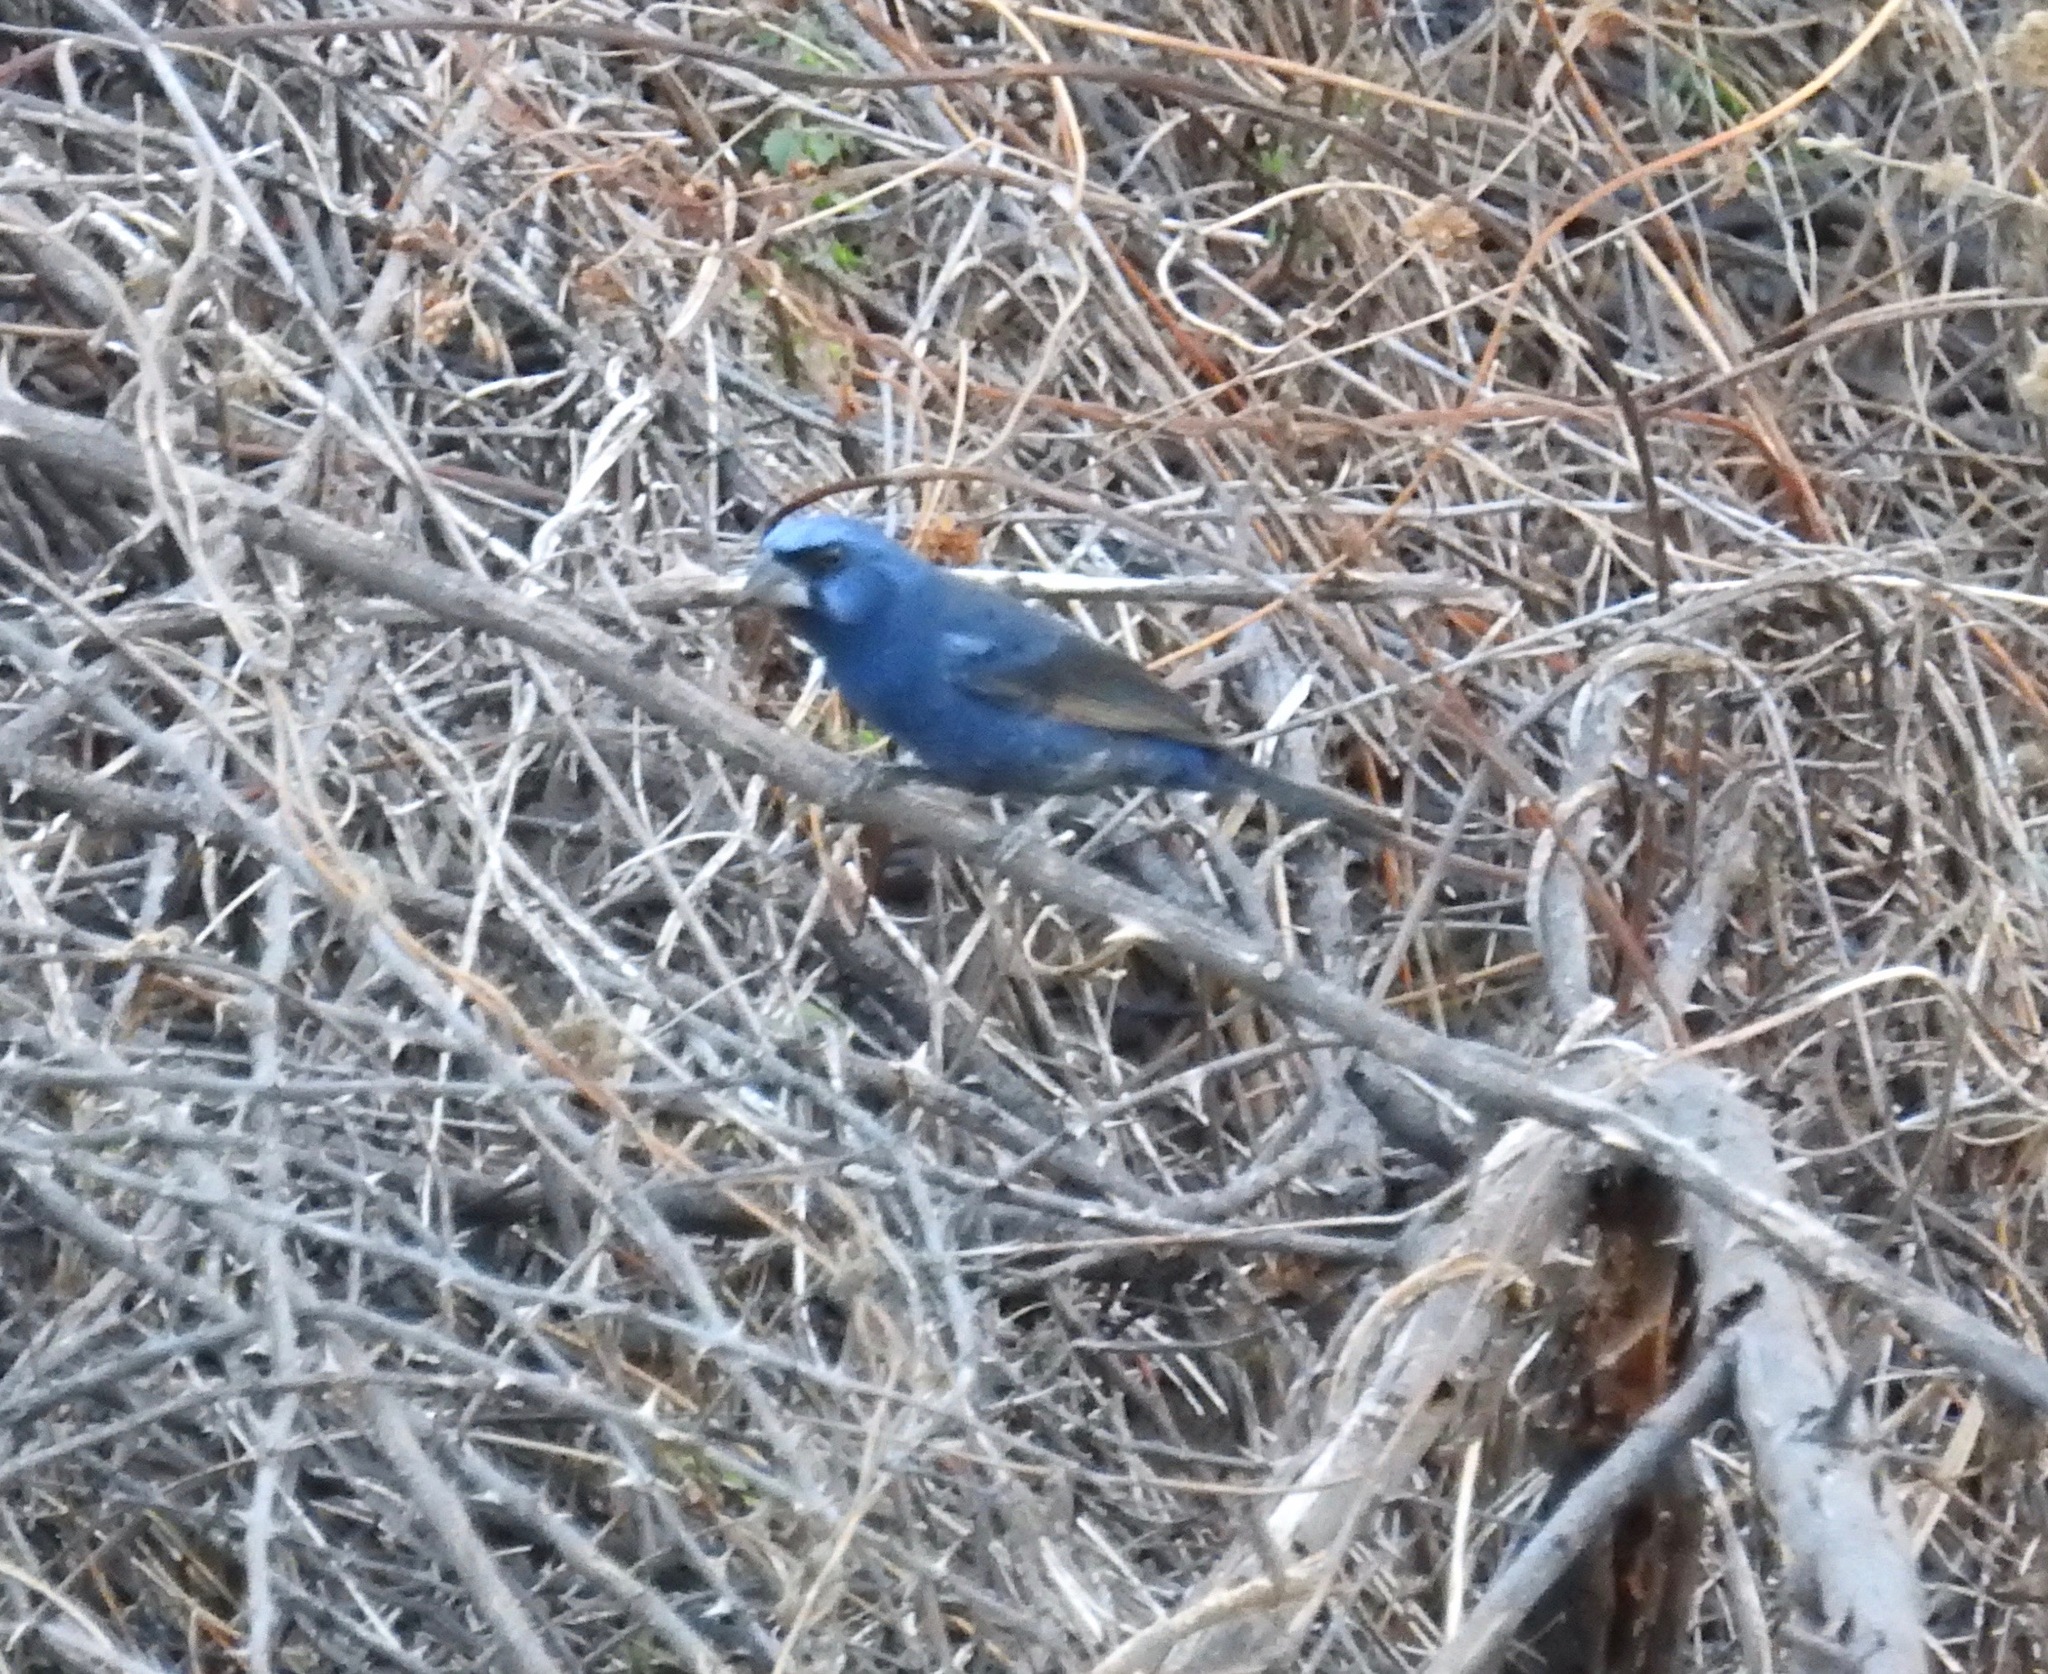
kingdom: Animalia
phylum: Chordata
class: Aves
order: Passeriformes
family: Cardinalidae
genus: Cyanoloxia
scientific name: Cyanoloxia brissonii
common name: Ultramarine grosbeak
